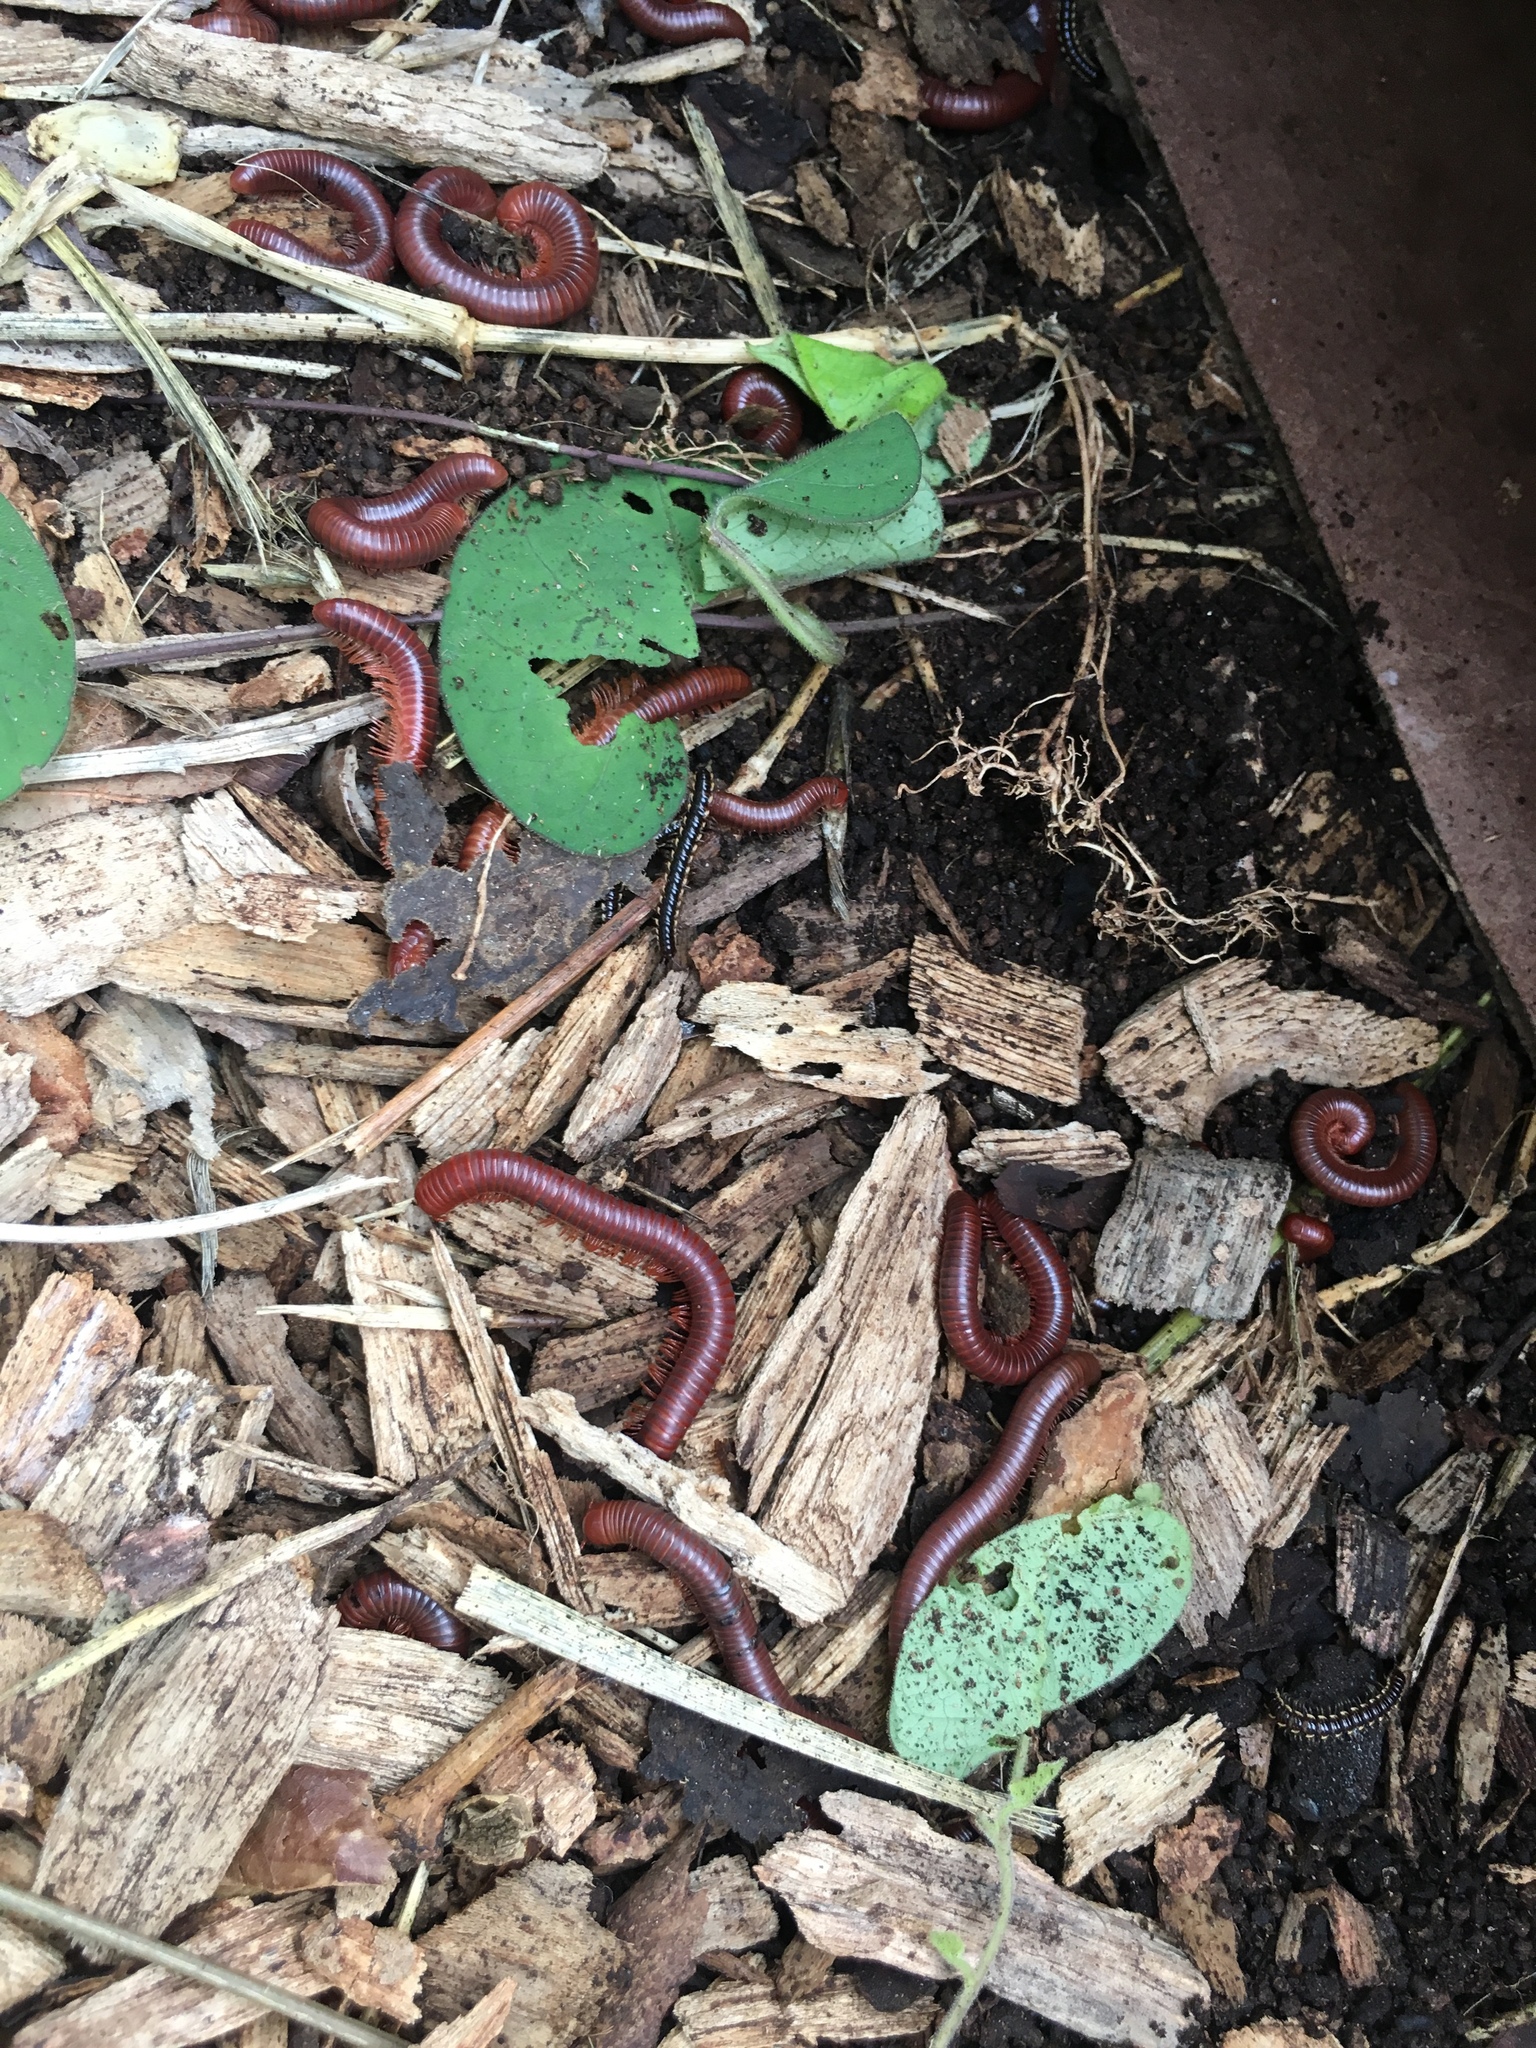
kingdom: Animalia
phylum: Arthropoda
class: Diplopoda
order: Spirobolida
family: Pachybolidae
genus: Trigoniulus
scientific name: Trigoniulus corallinus
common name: Millipede
